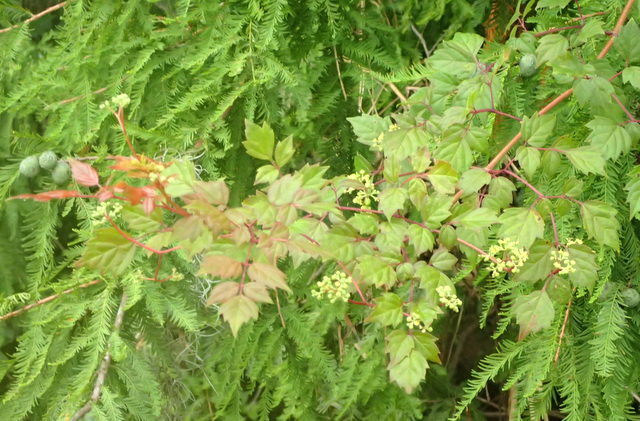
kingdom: Plantae
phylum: Tracheophyta
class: Magnoliopsida
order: Vitales
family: Vitaceae
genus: Nekemias
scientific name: Nekemias arborea
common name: Peppervine
